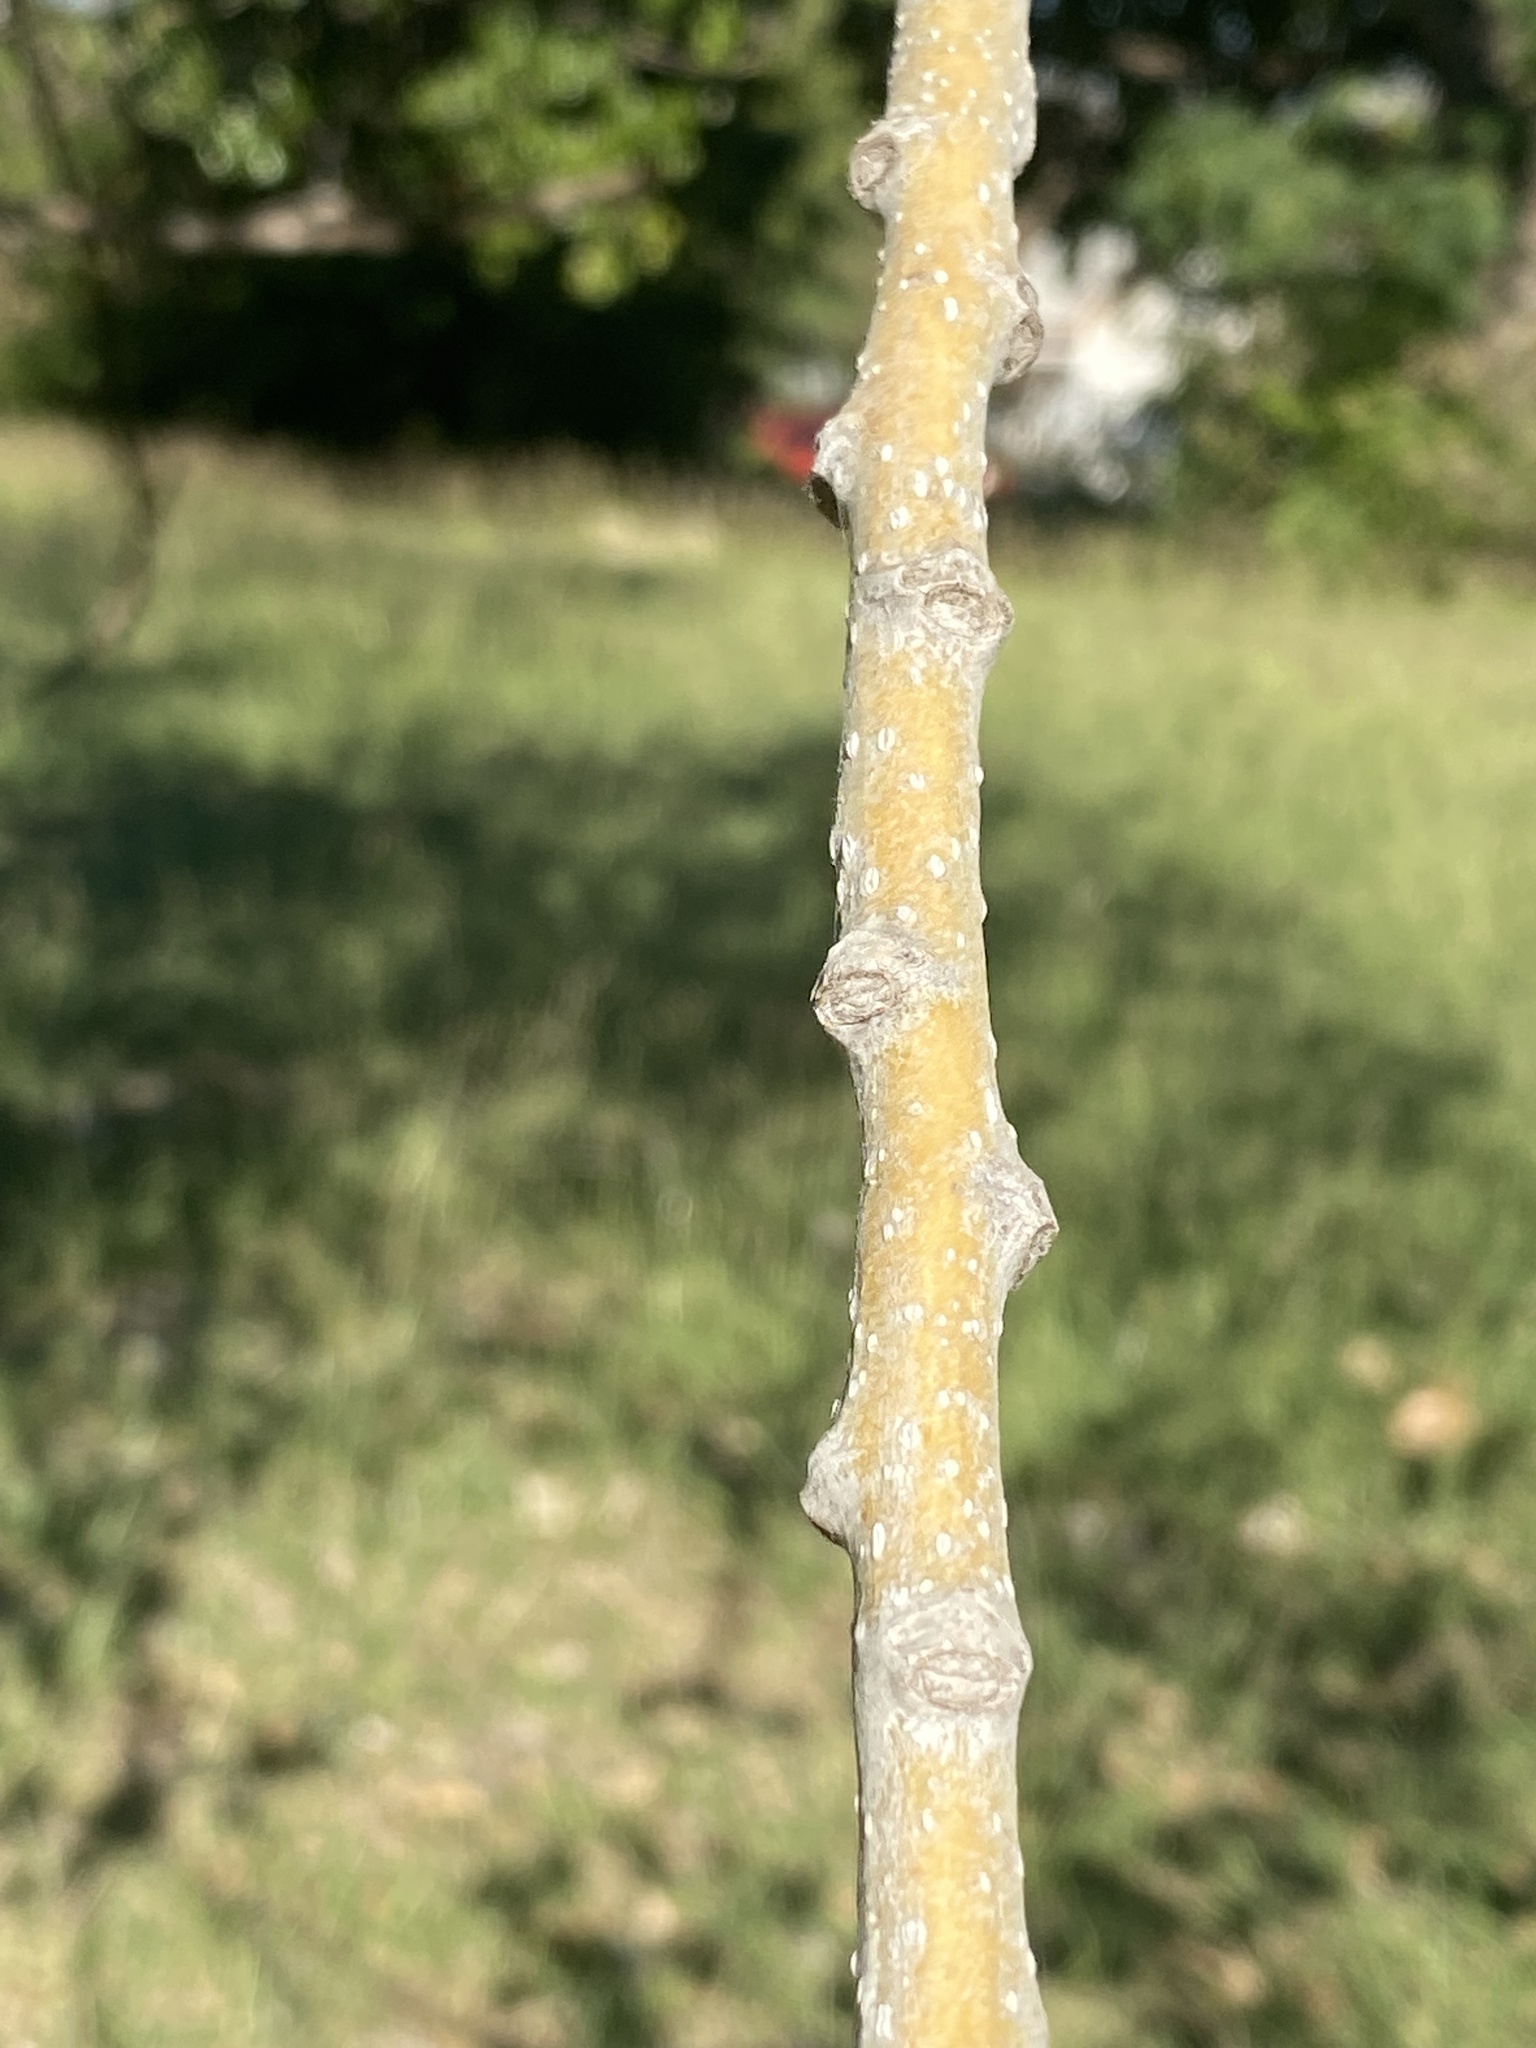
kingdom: Plantae
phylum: Tracheophyta
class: Magnoliopsida
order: Malpighiales
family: Salicaceae
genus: Populus
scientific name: Populus deltoides
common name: Eastern cottonwood
